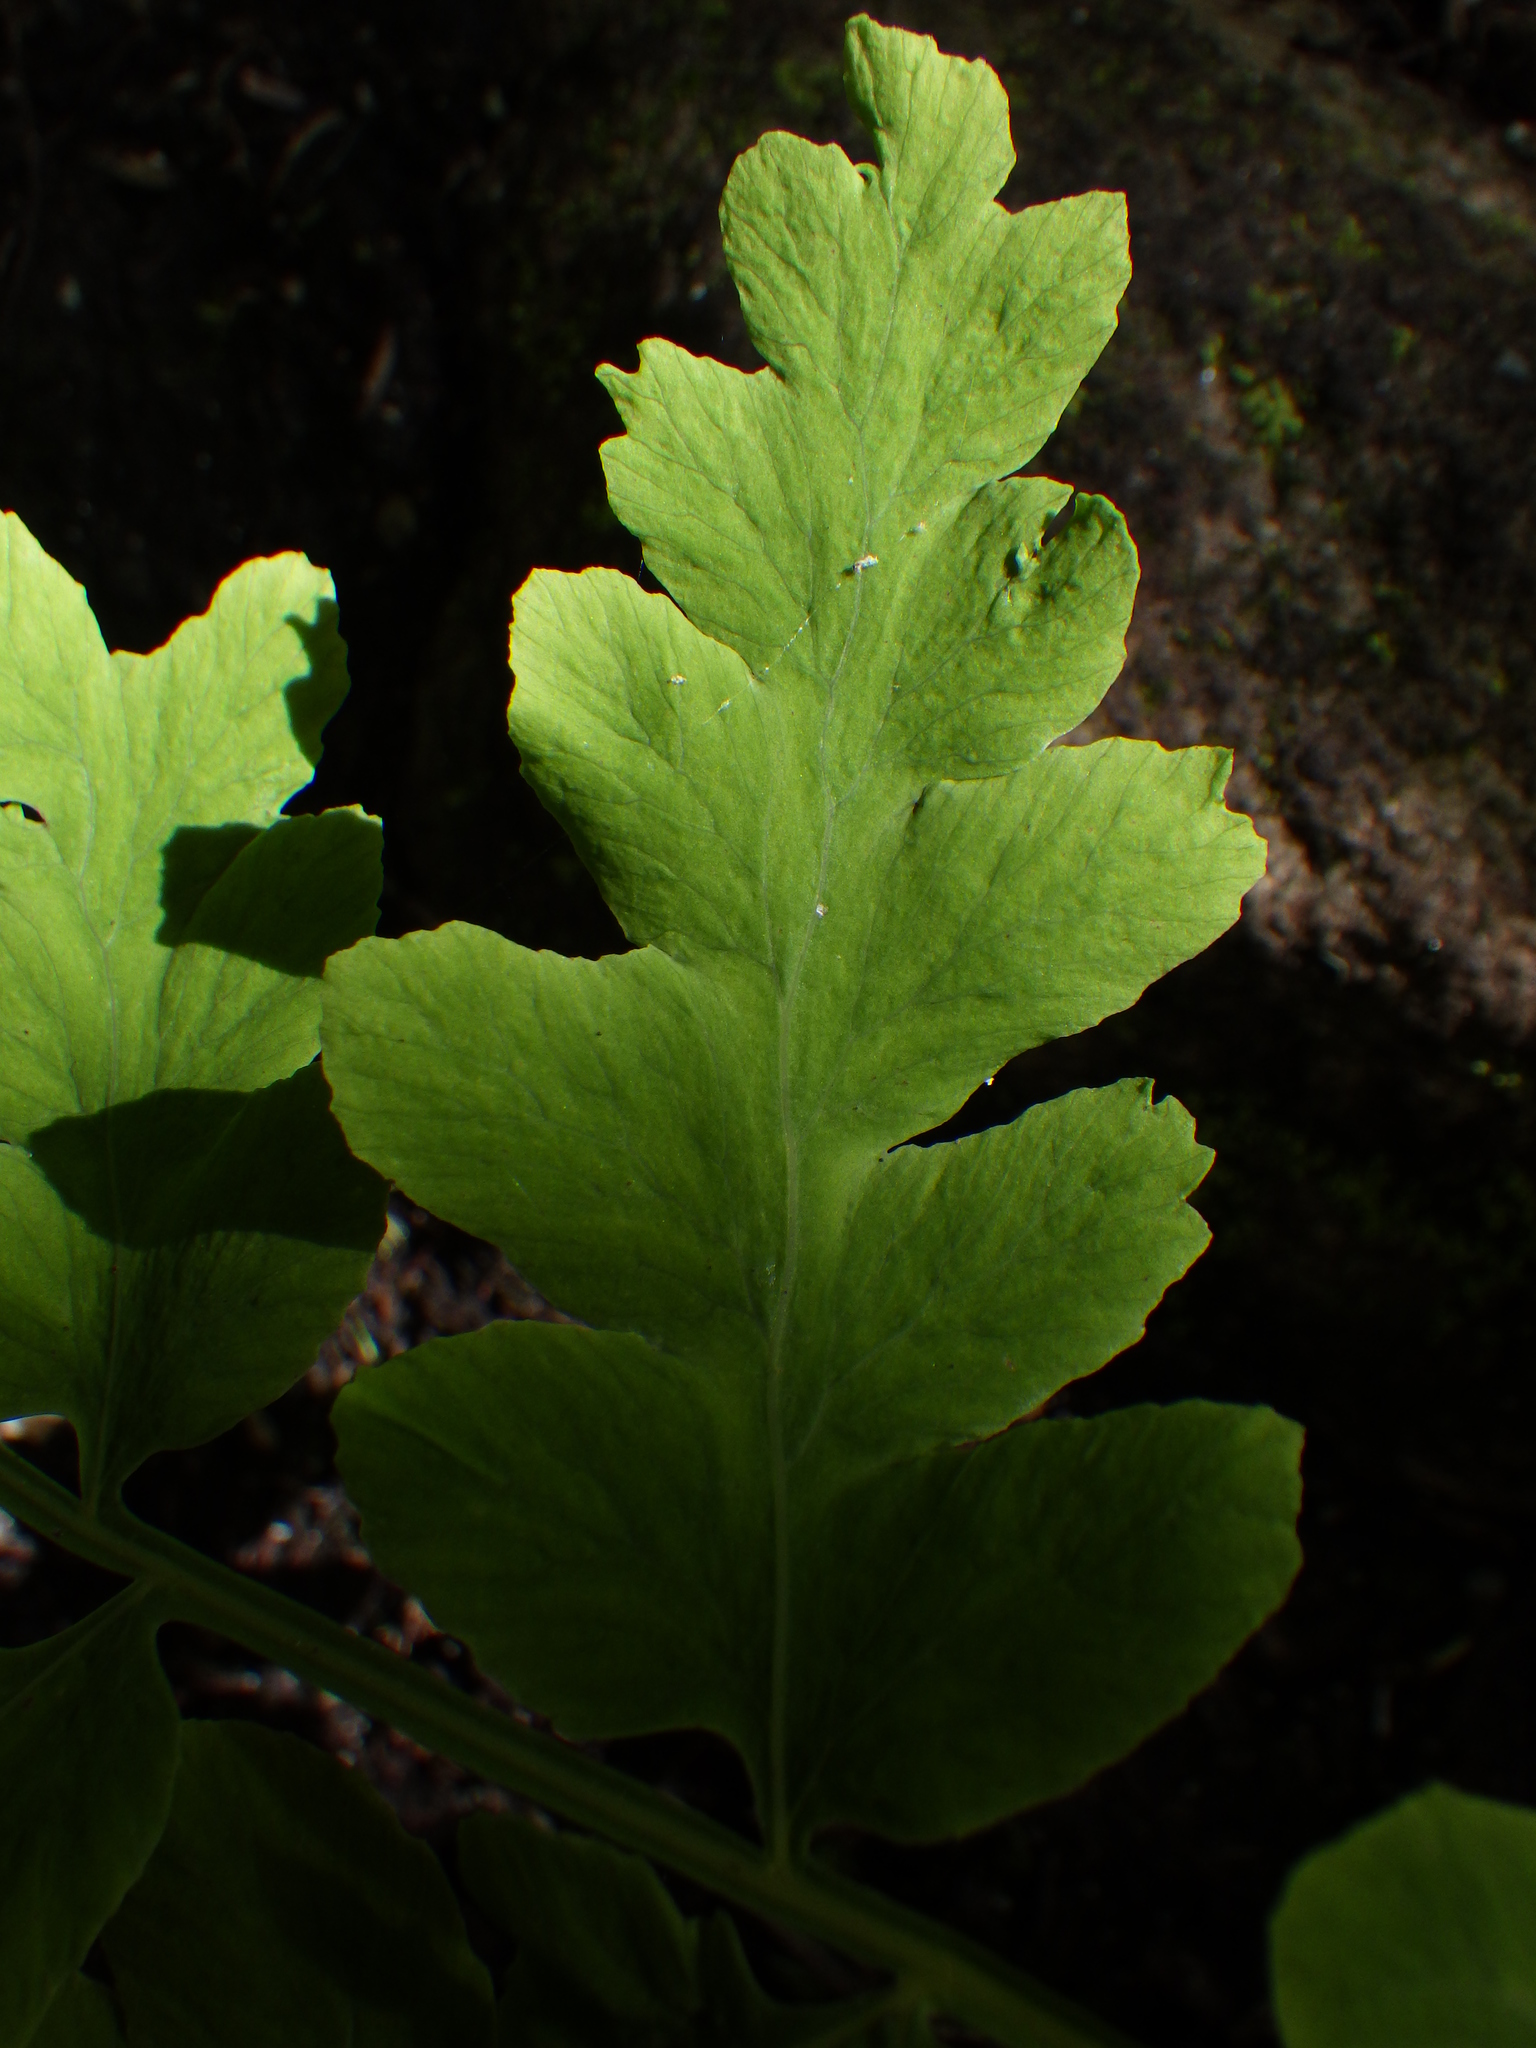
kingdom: Plantae
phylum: Tracheophyta
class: Polypodiopsida
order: Osmundales
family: Osmundaceae
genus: Claytosmunda
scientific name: Claytosmunda claytoniana
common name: Clayton's fern
